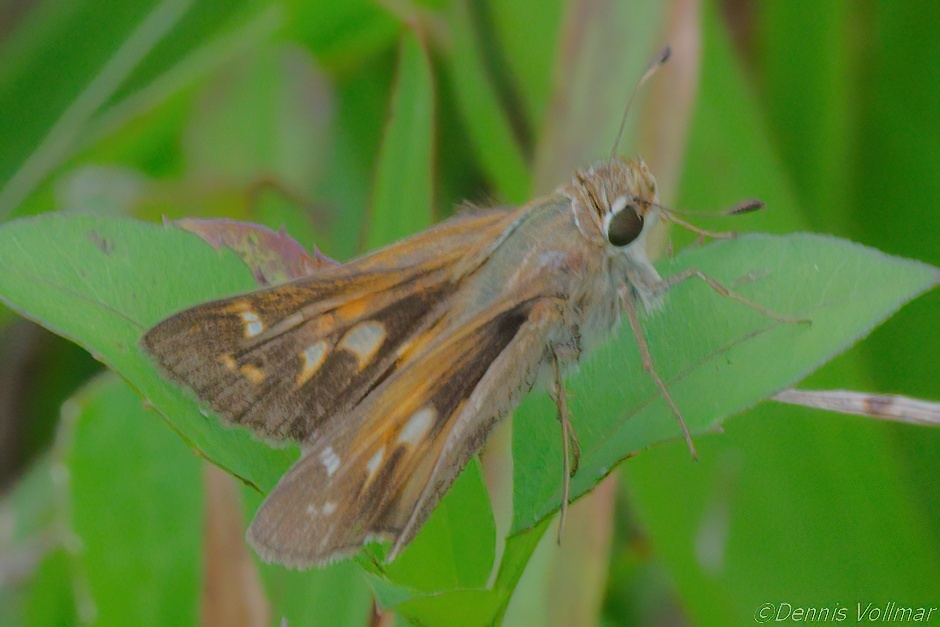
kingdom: Animalia
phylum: Arthropoda
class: Insecta
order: Lepidoptera
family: Hesperiidae
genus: Atalopedes
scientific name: Atalopedes
